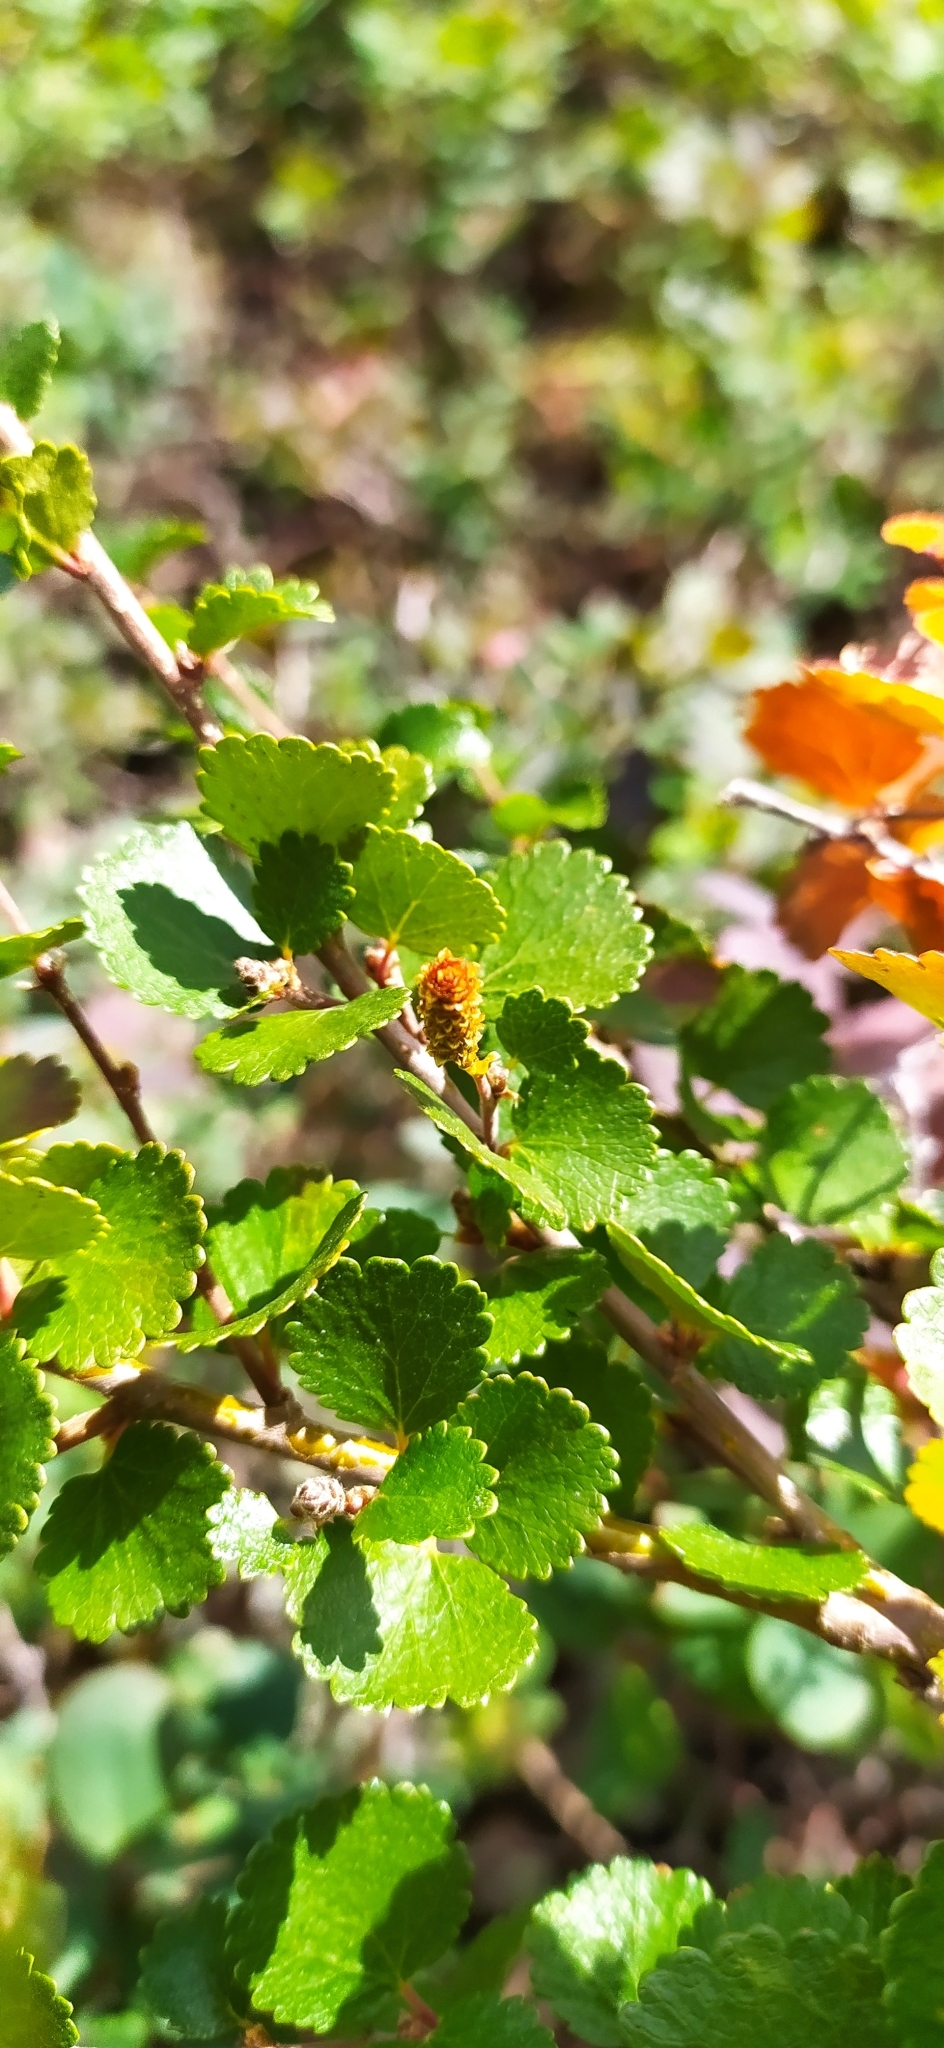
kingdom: Plantae
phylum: Tracheophyta
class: Magnoliopsida
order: Fagales
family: Betulaceae
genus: Betula
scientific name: Betula nana
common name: Arctic dwarf birch
